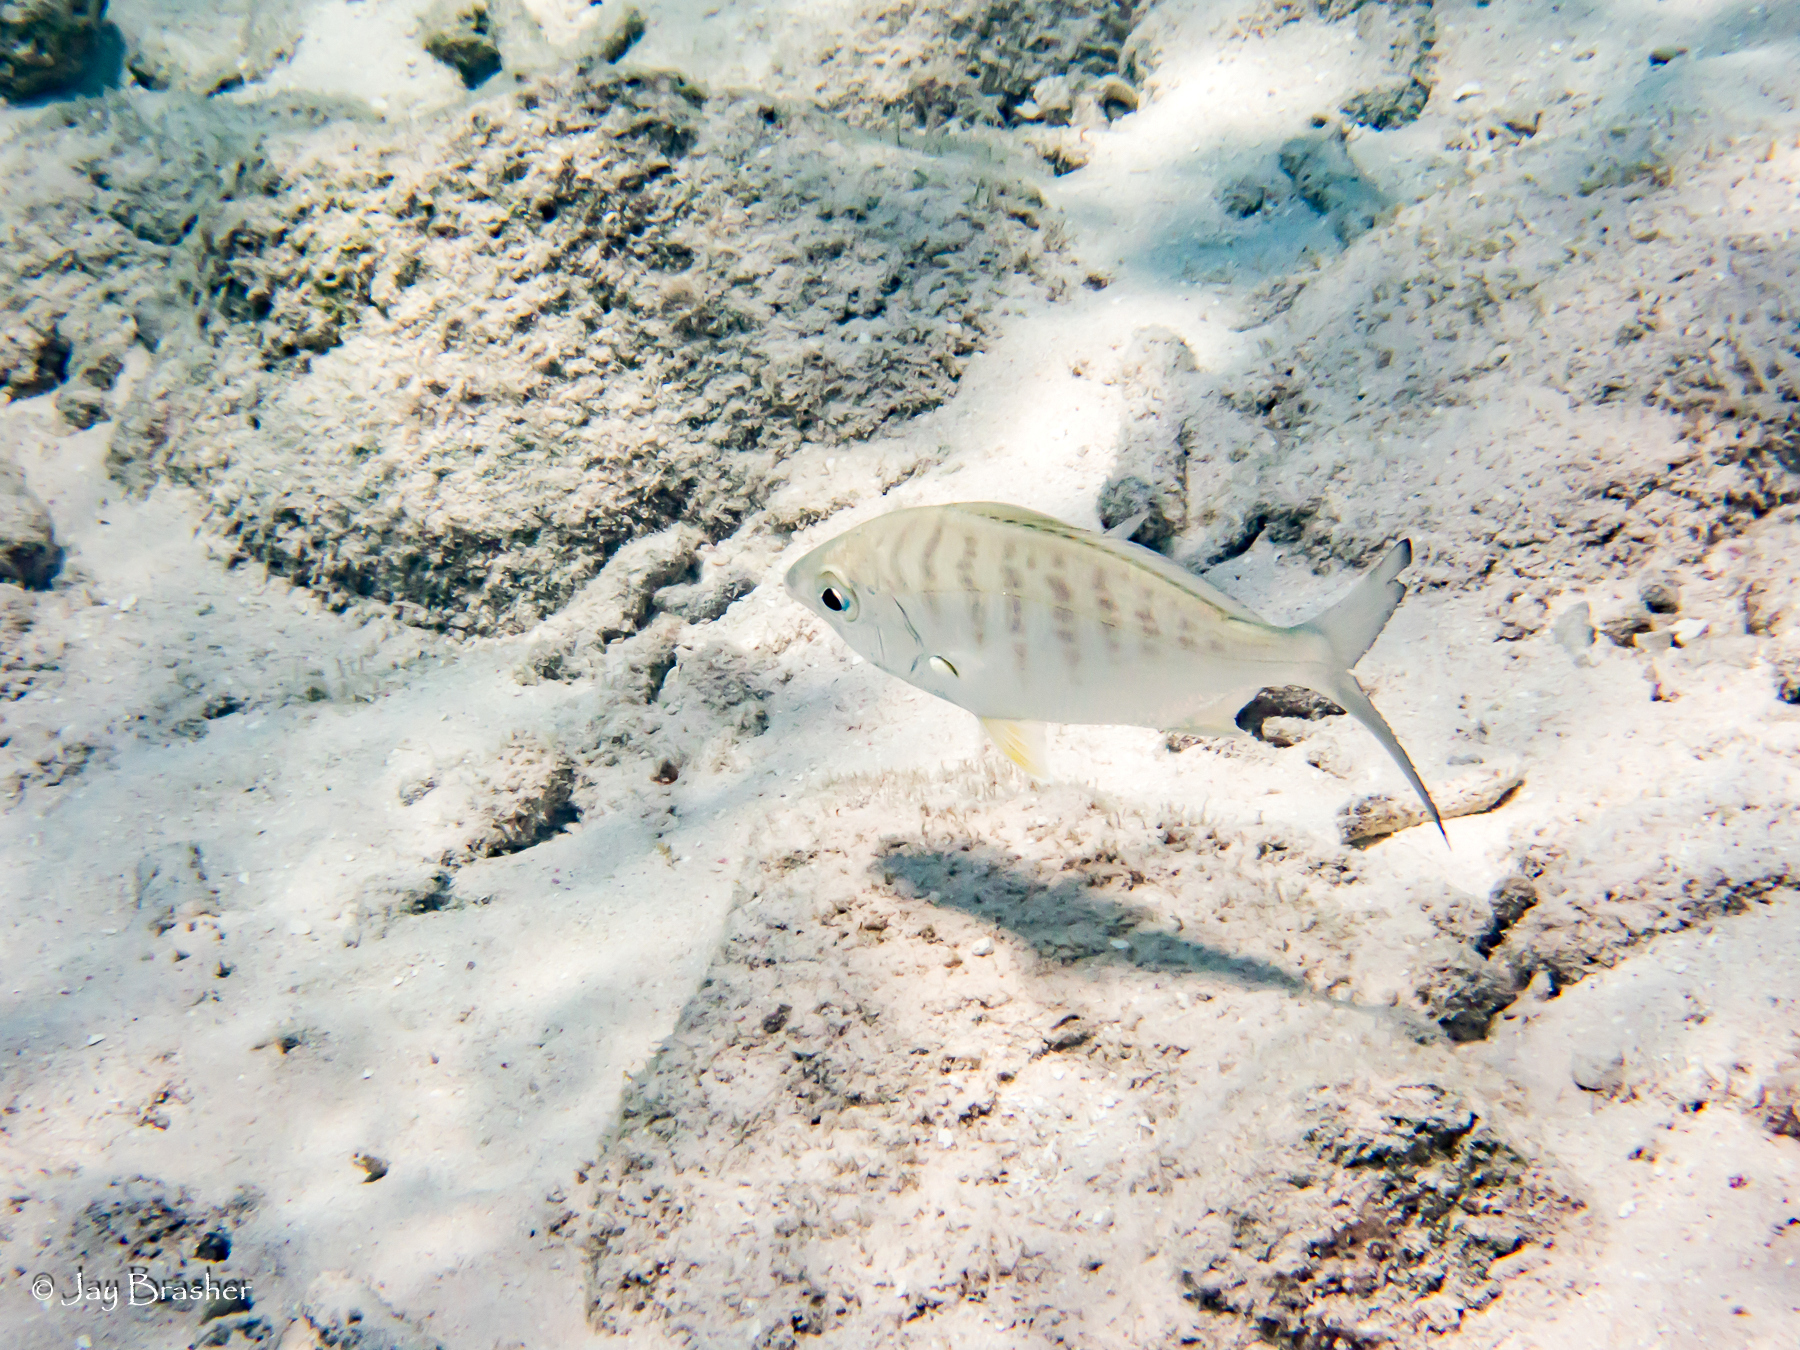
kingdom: Animalia
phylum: Chordata
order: Perciformes
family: Gerreidae
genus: Gerres
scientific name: Gerres cinereus
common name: Hedow
